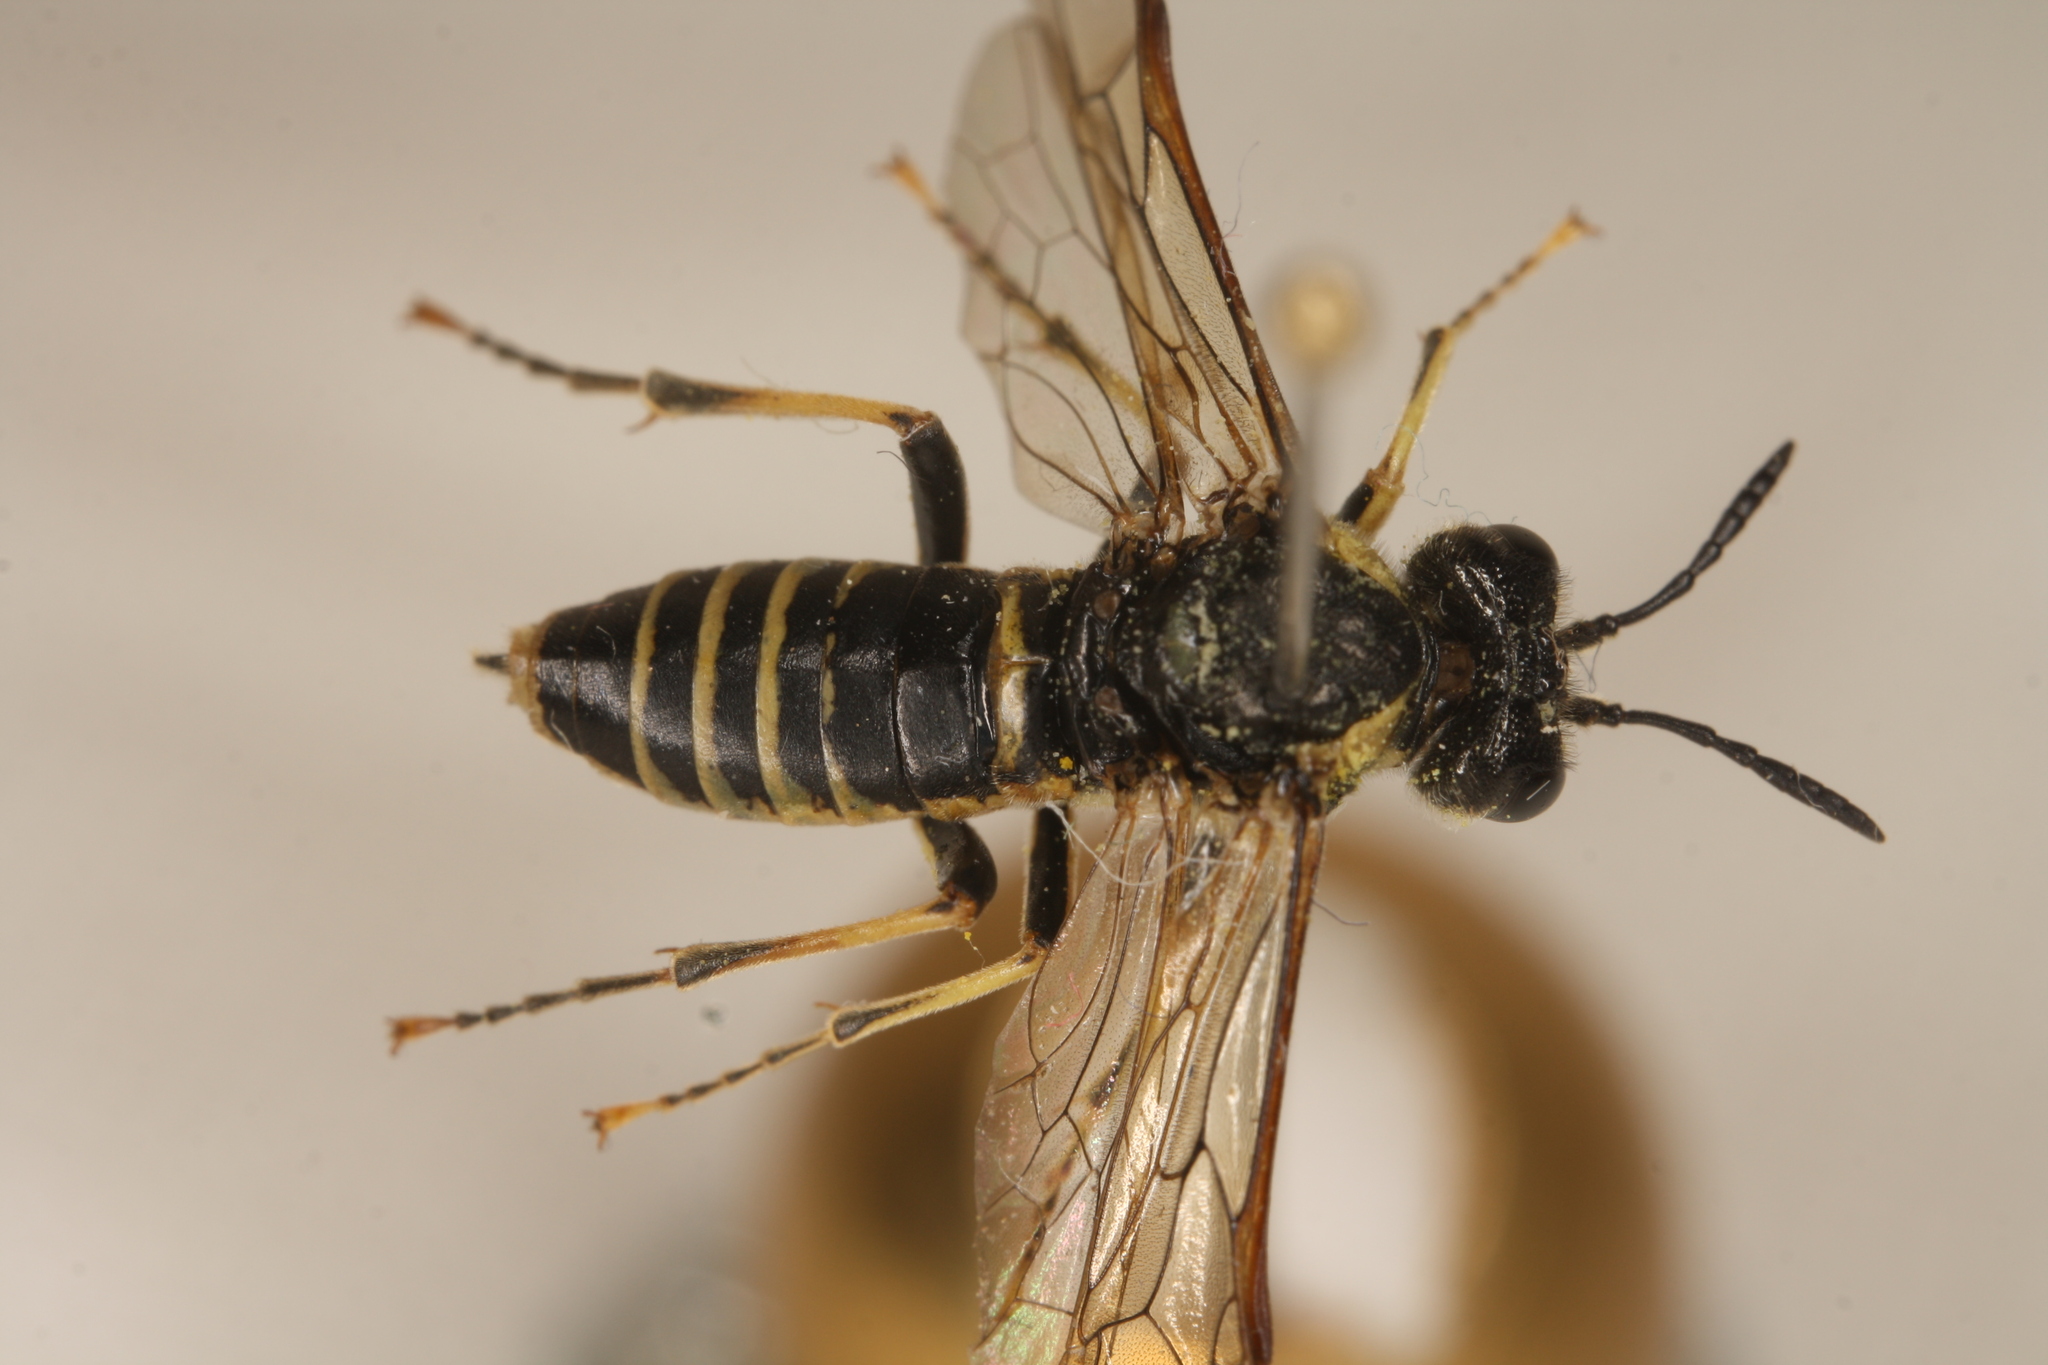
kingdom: Animalia
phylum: Arthropoda
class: Insecta
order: Hymenoptera
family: Tenthredinidae
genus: Tenthredo
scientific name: Tenthredo brevicornis
